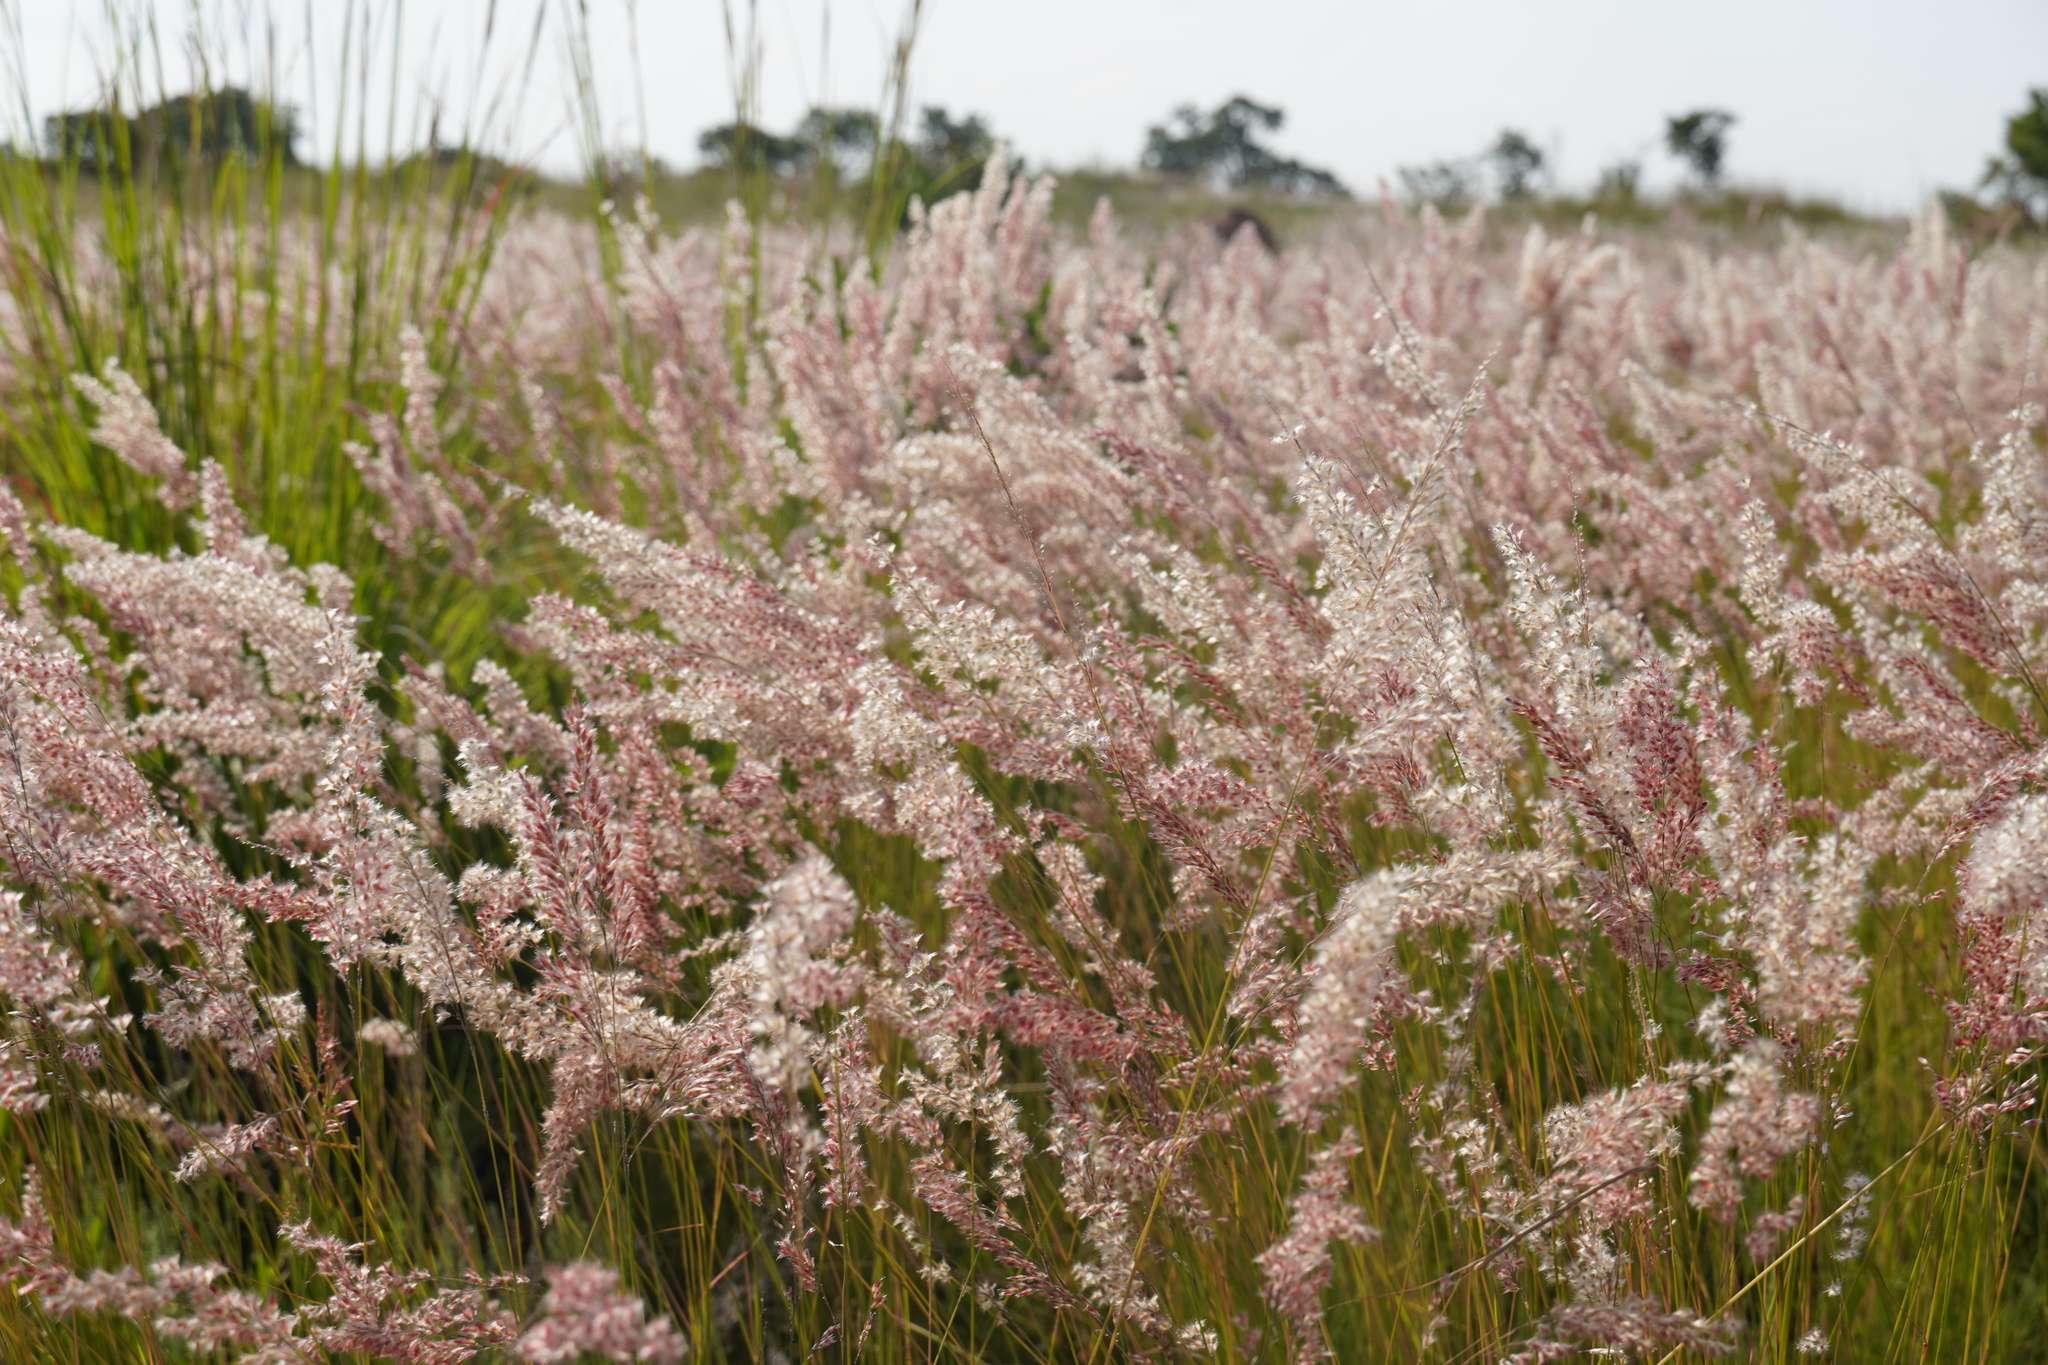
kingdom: Plantae
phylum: Tracheophyta
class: Liliopsida
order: Poales
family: Poaceae
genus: Melinis
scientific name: Melinis repens
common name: Rose natal grass
